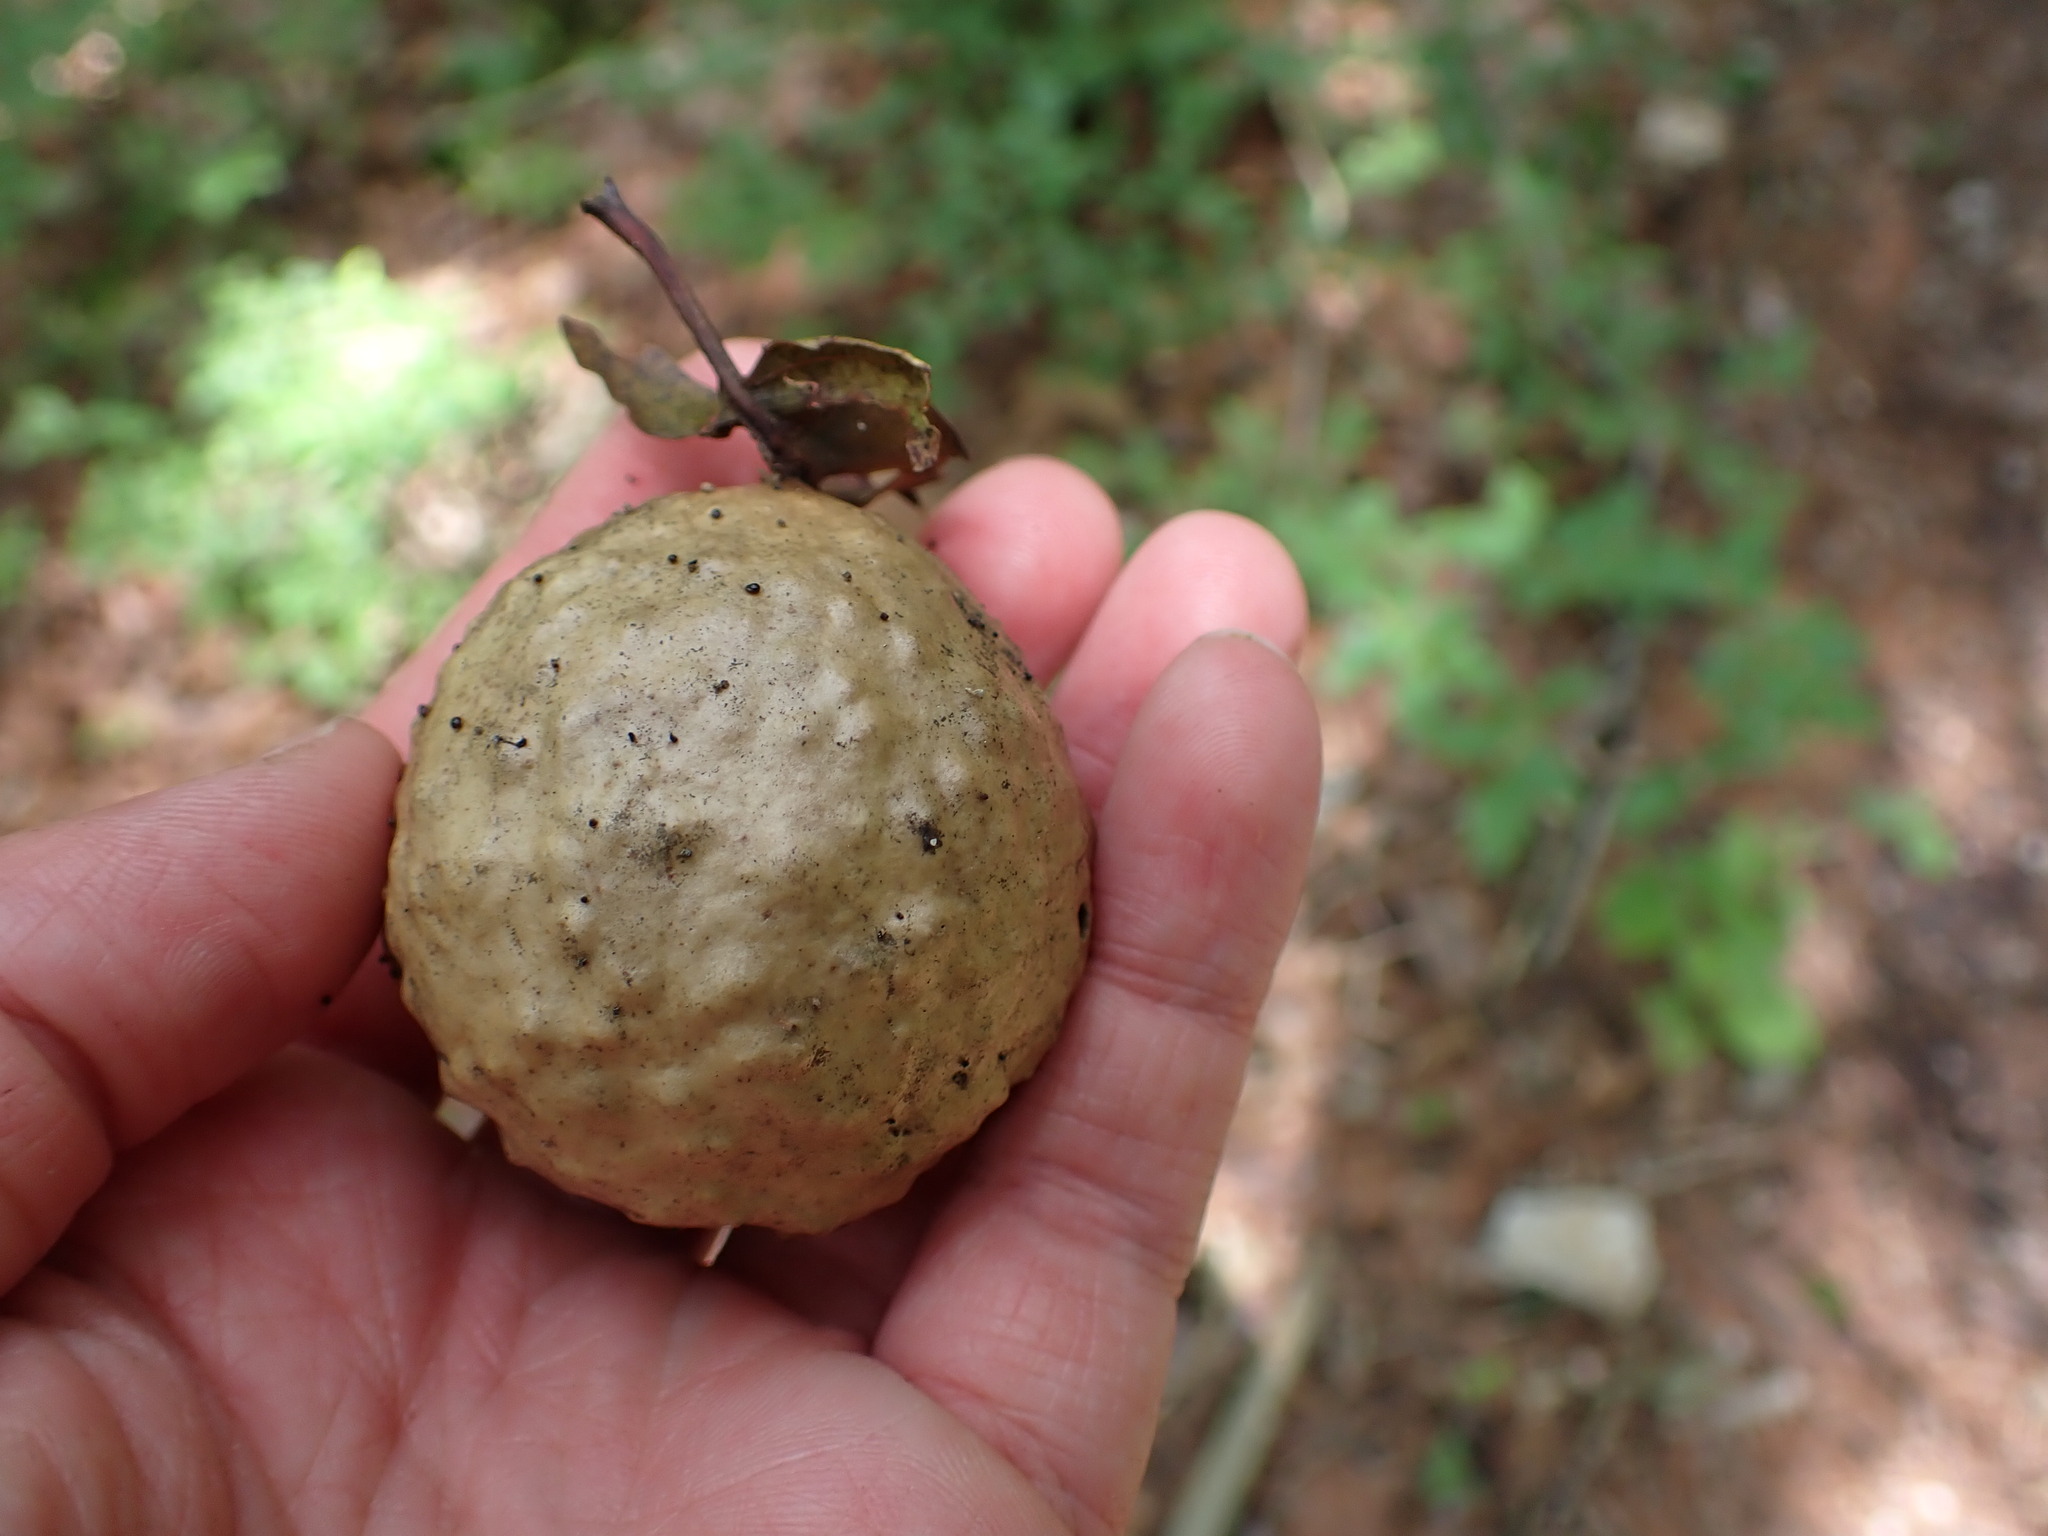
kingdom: Animalia
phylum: Arthropoda
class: Insecta
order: Hymenoptera
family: Cynipidae
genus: Amphibolips
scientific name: Amphibolips
